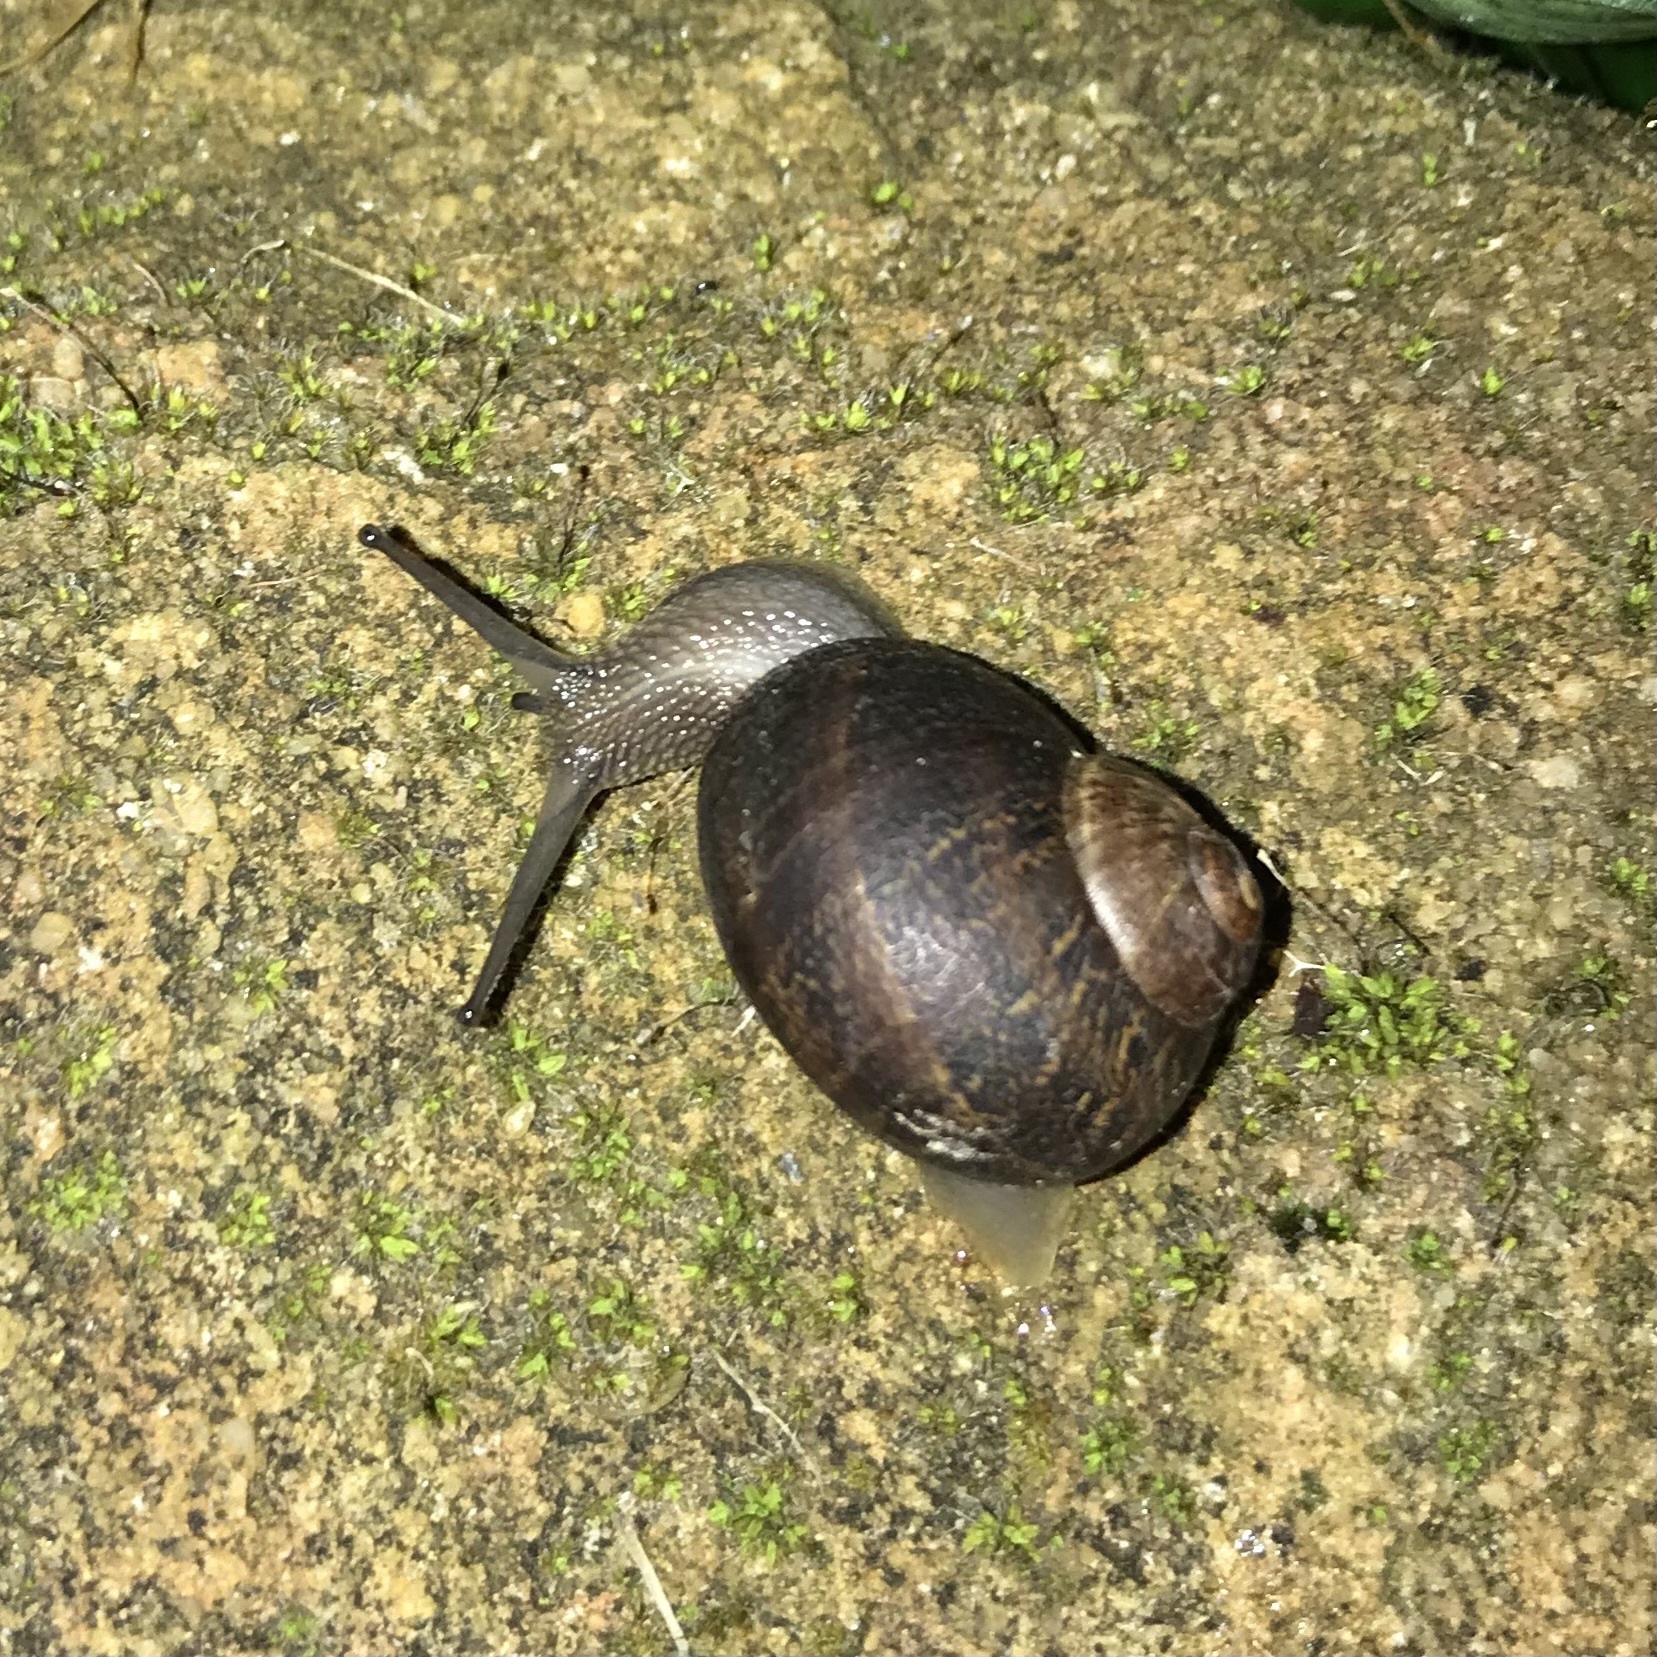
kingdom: Animalia
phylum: Mollusca
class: Gastropoda
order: Stylommatophora
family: Helicidae
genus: Cornu
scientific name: Cornu aspersum
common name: Brown garden snail
